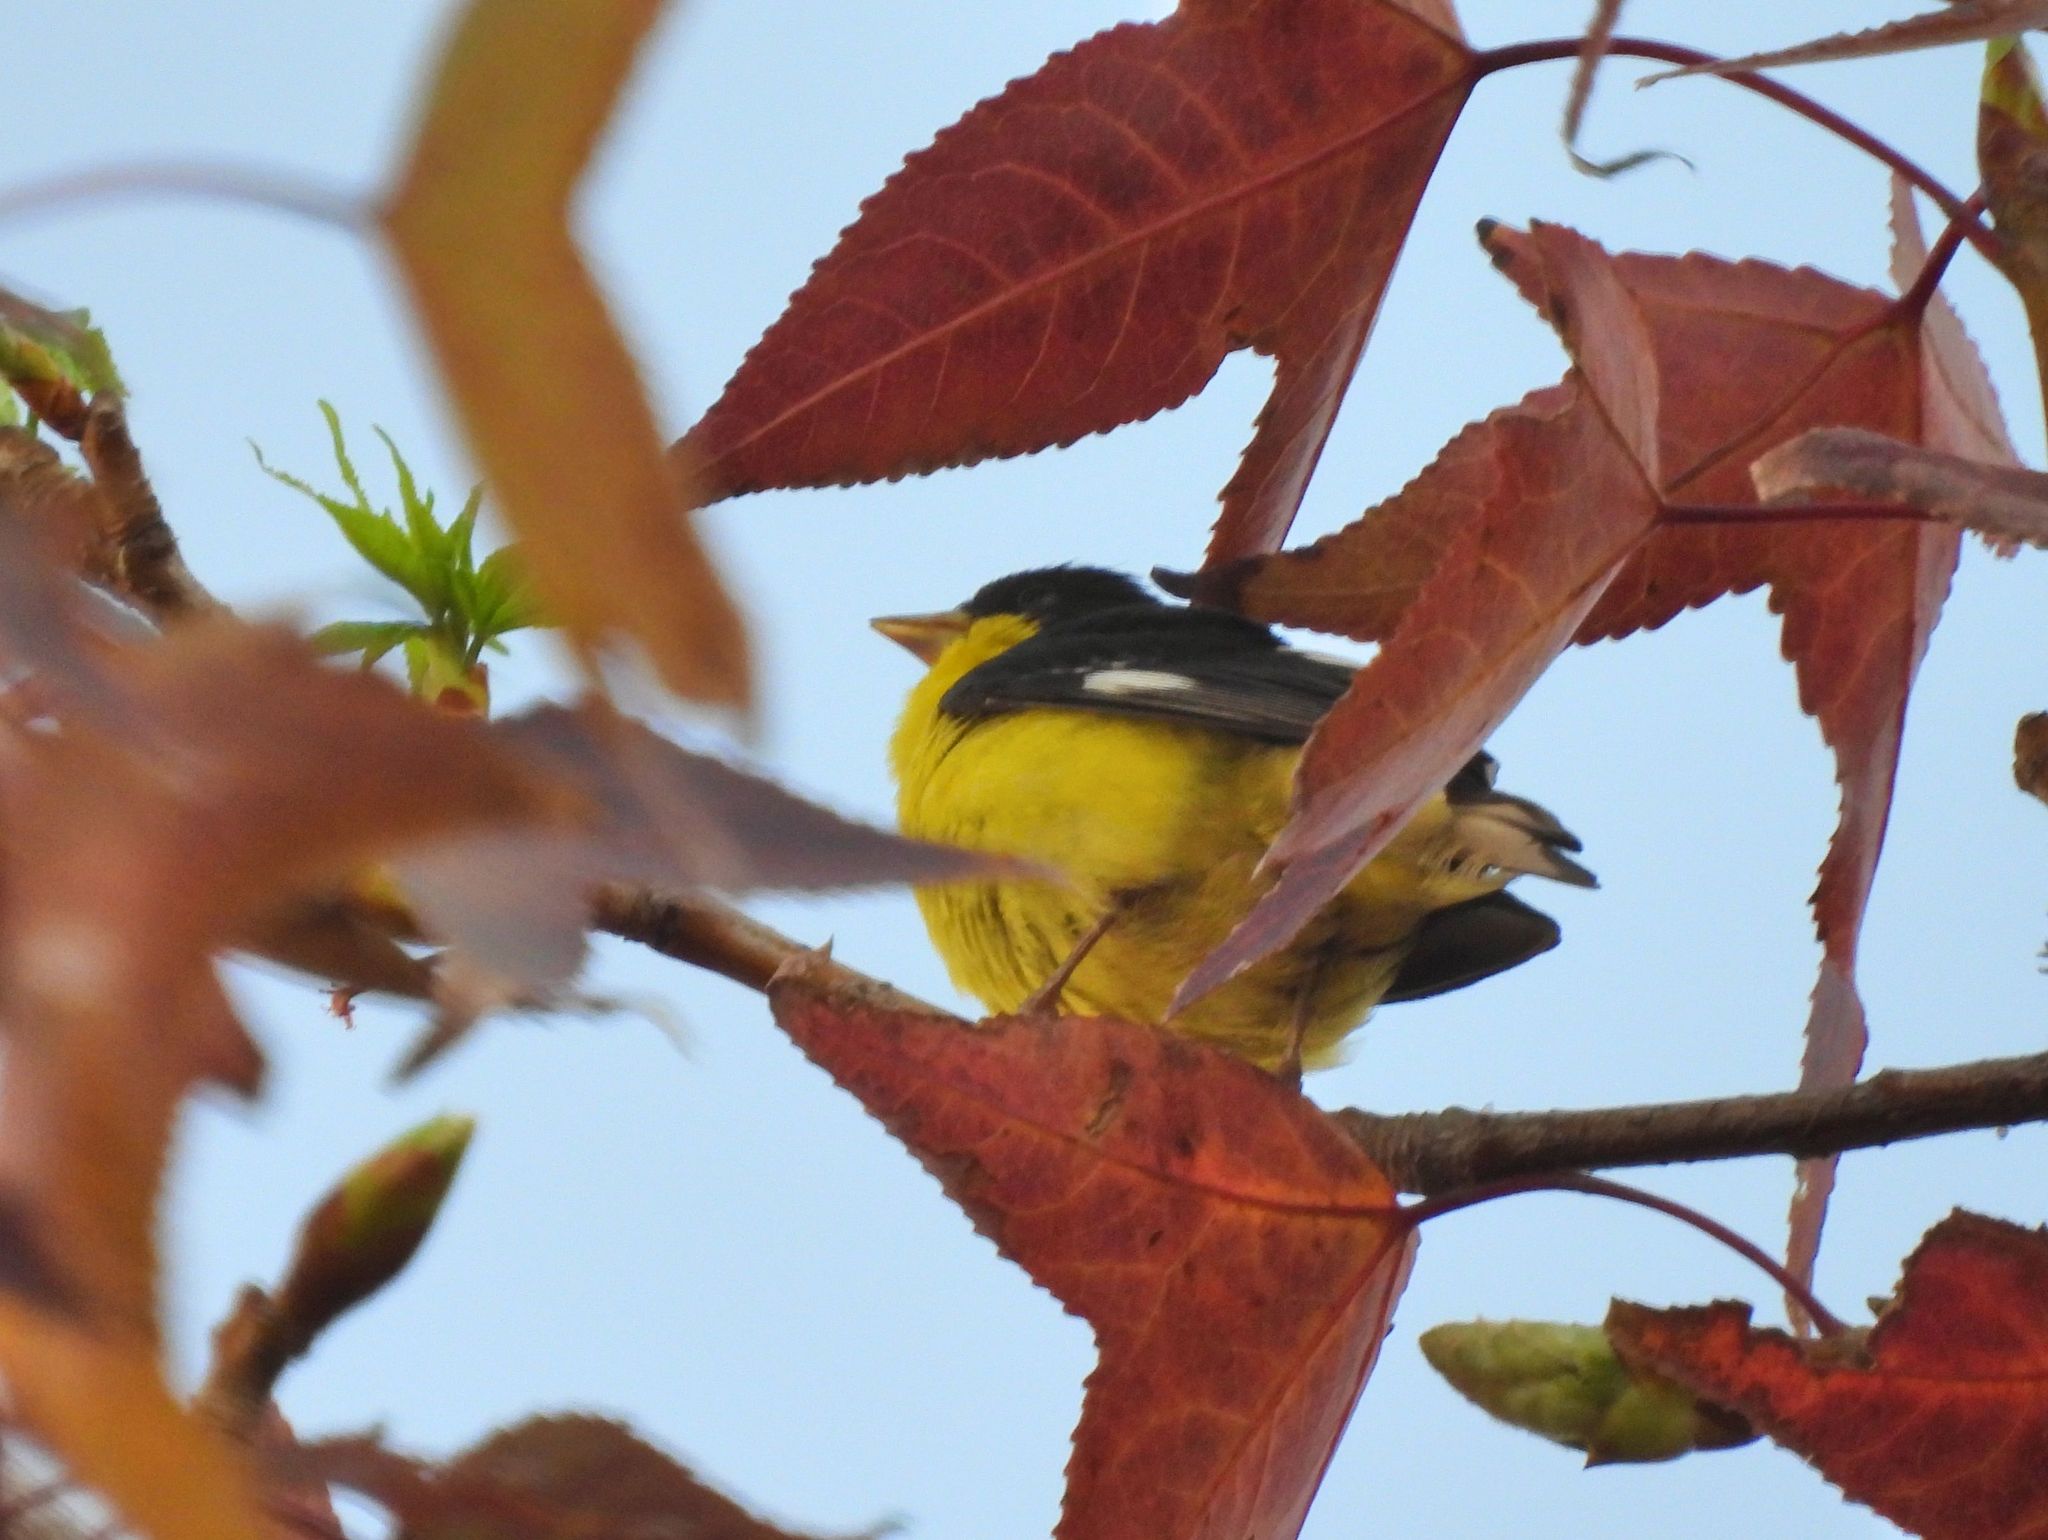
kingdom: Animalia
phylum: Chordata
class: Aves
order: Passeriformes
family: Fringillidae
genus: Spinus
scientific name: Spinus psaltria
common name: Lesser goldfinch
